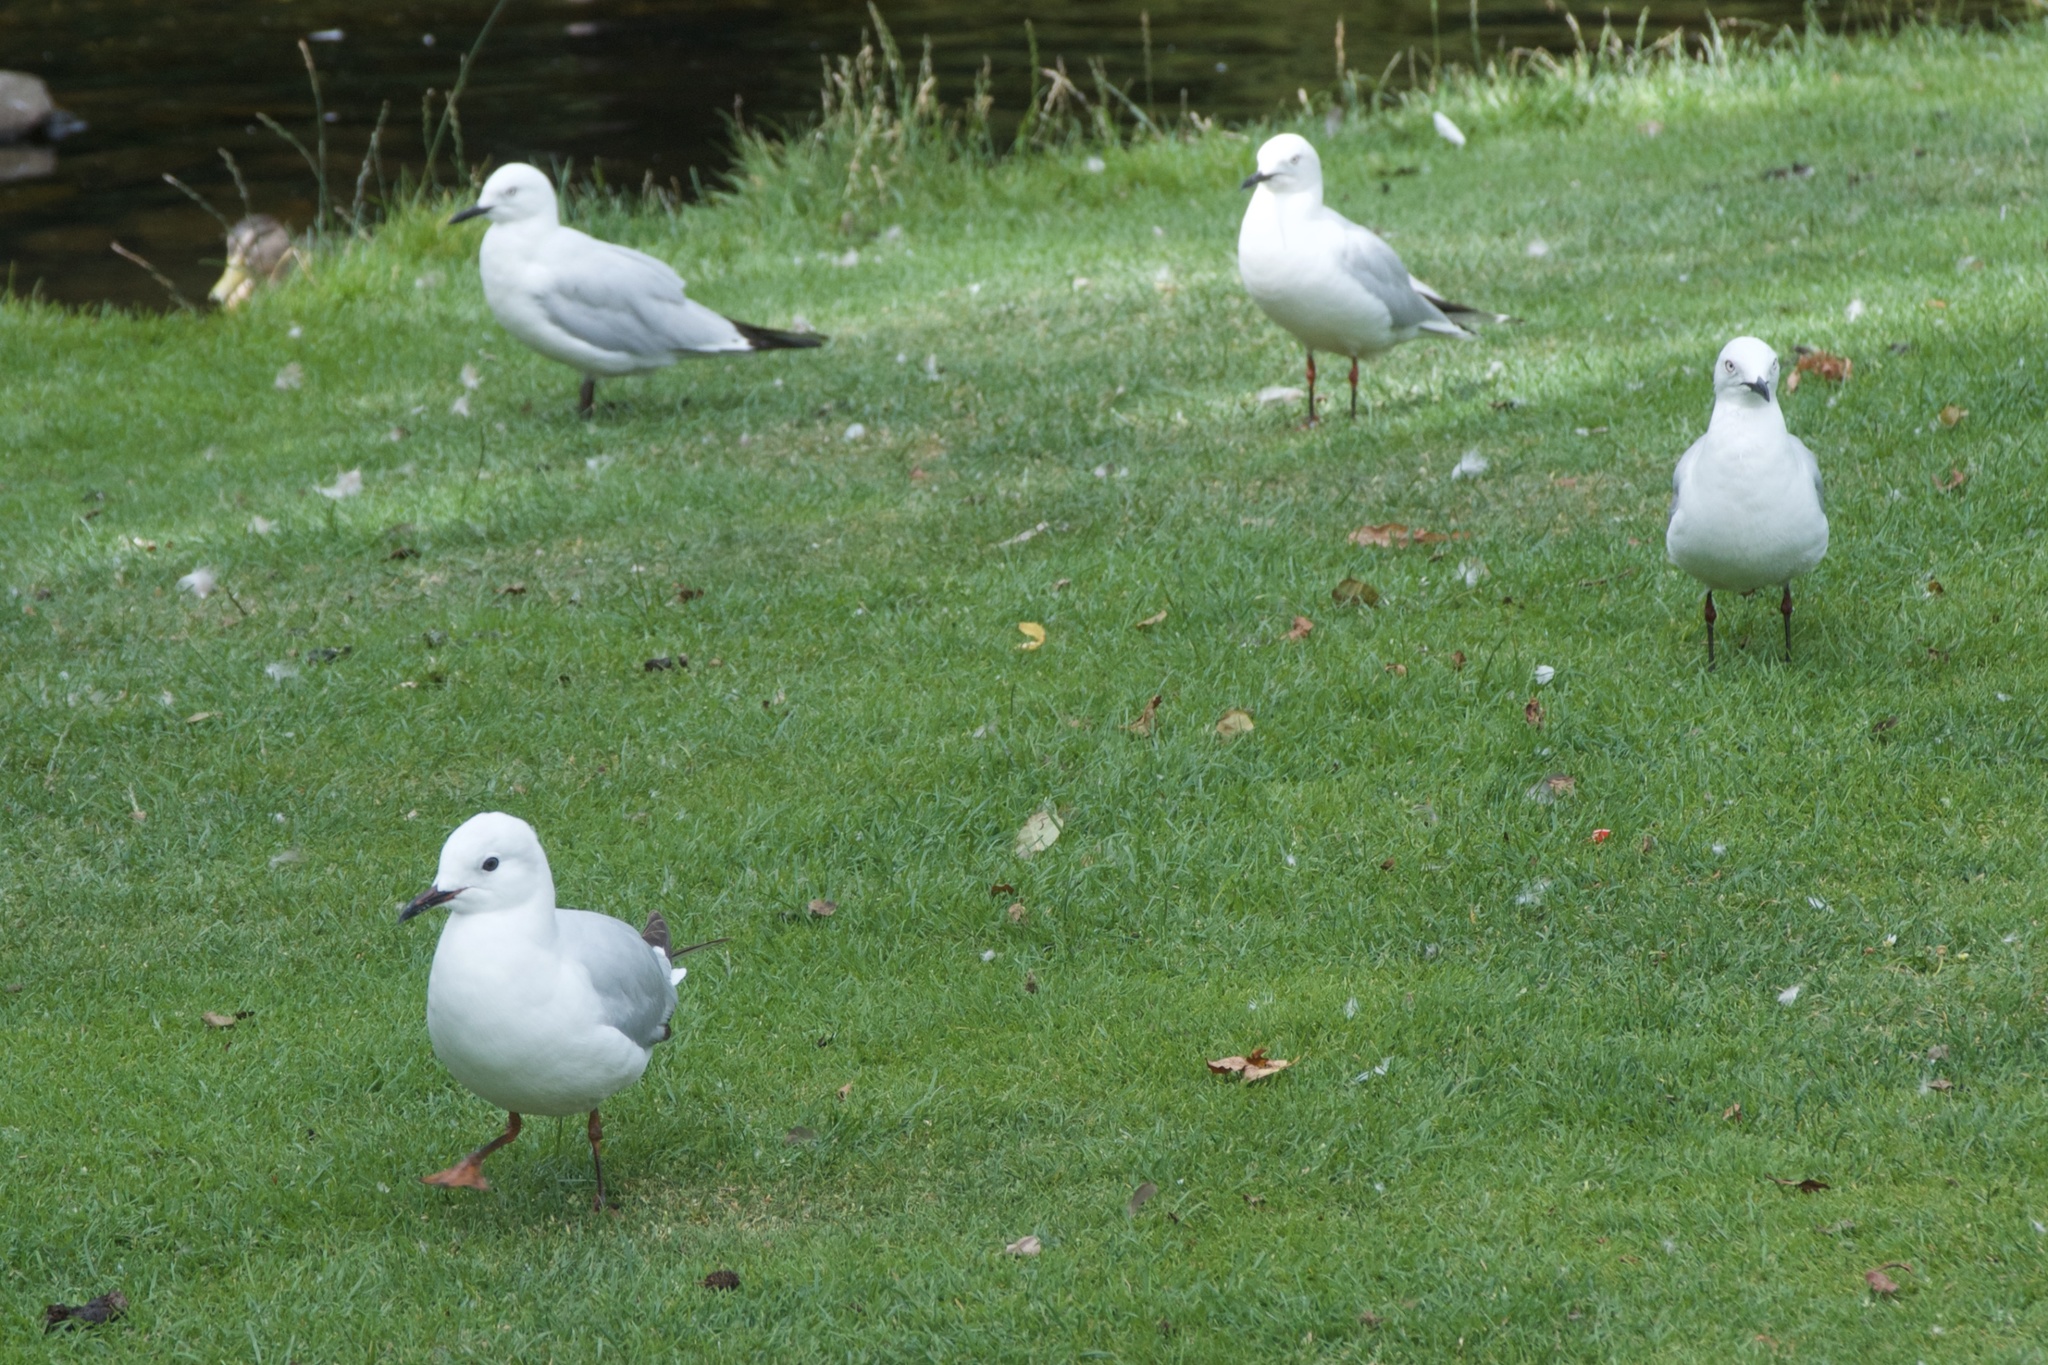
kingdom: Animalia
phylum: Chordata
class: Aves
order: Charadriiformes
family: Laridae
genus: Chroicocephalus
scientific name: Chroicocephalus bulleri
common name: Black-billed gull
